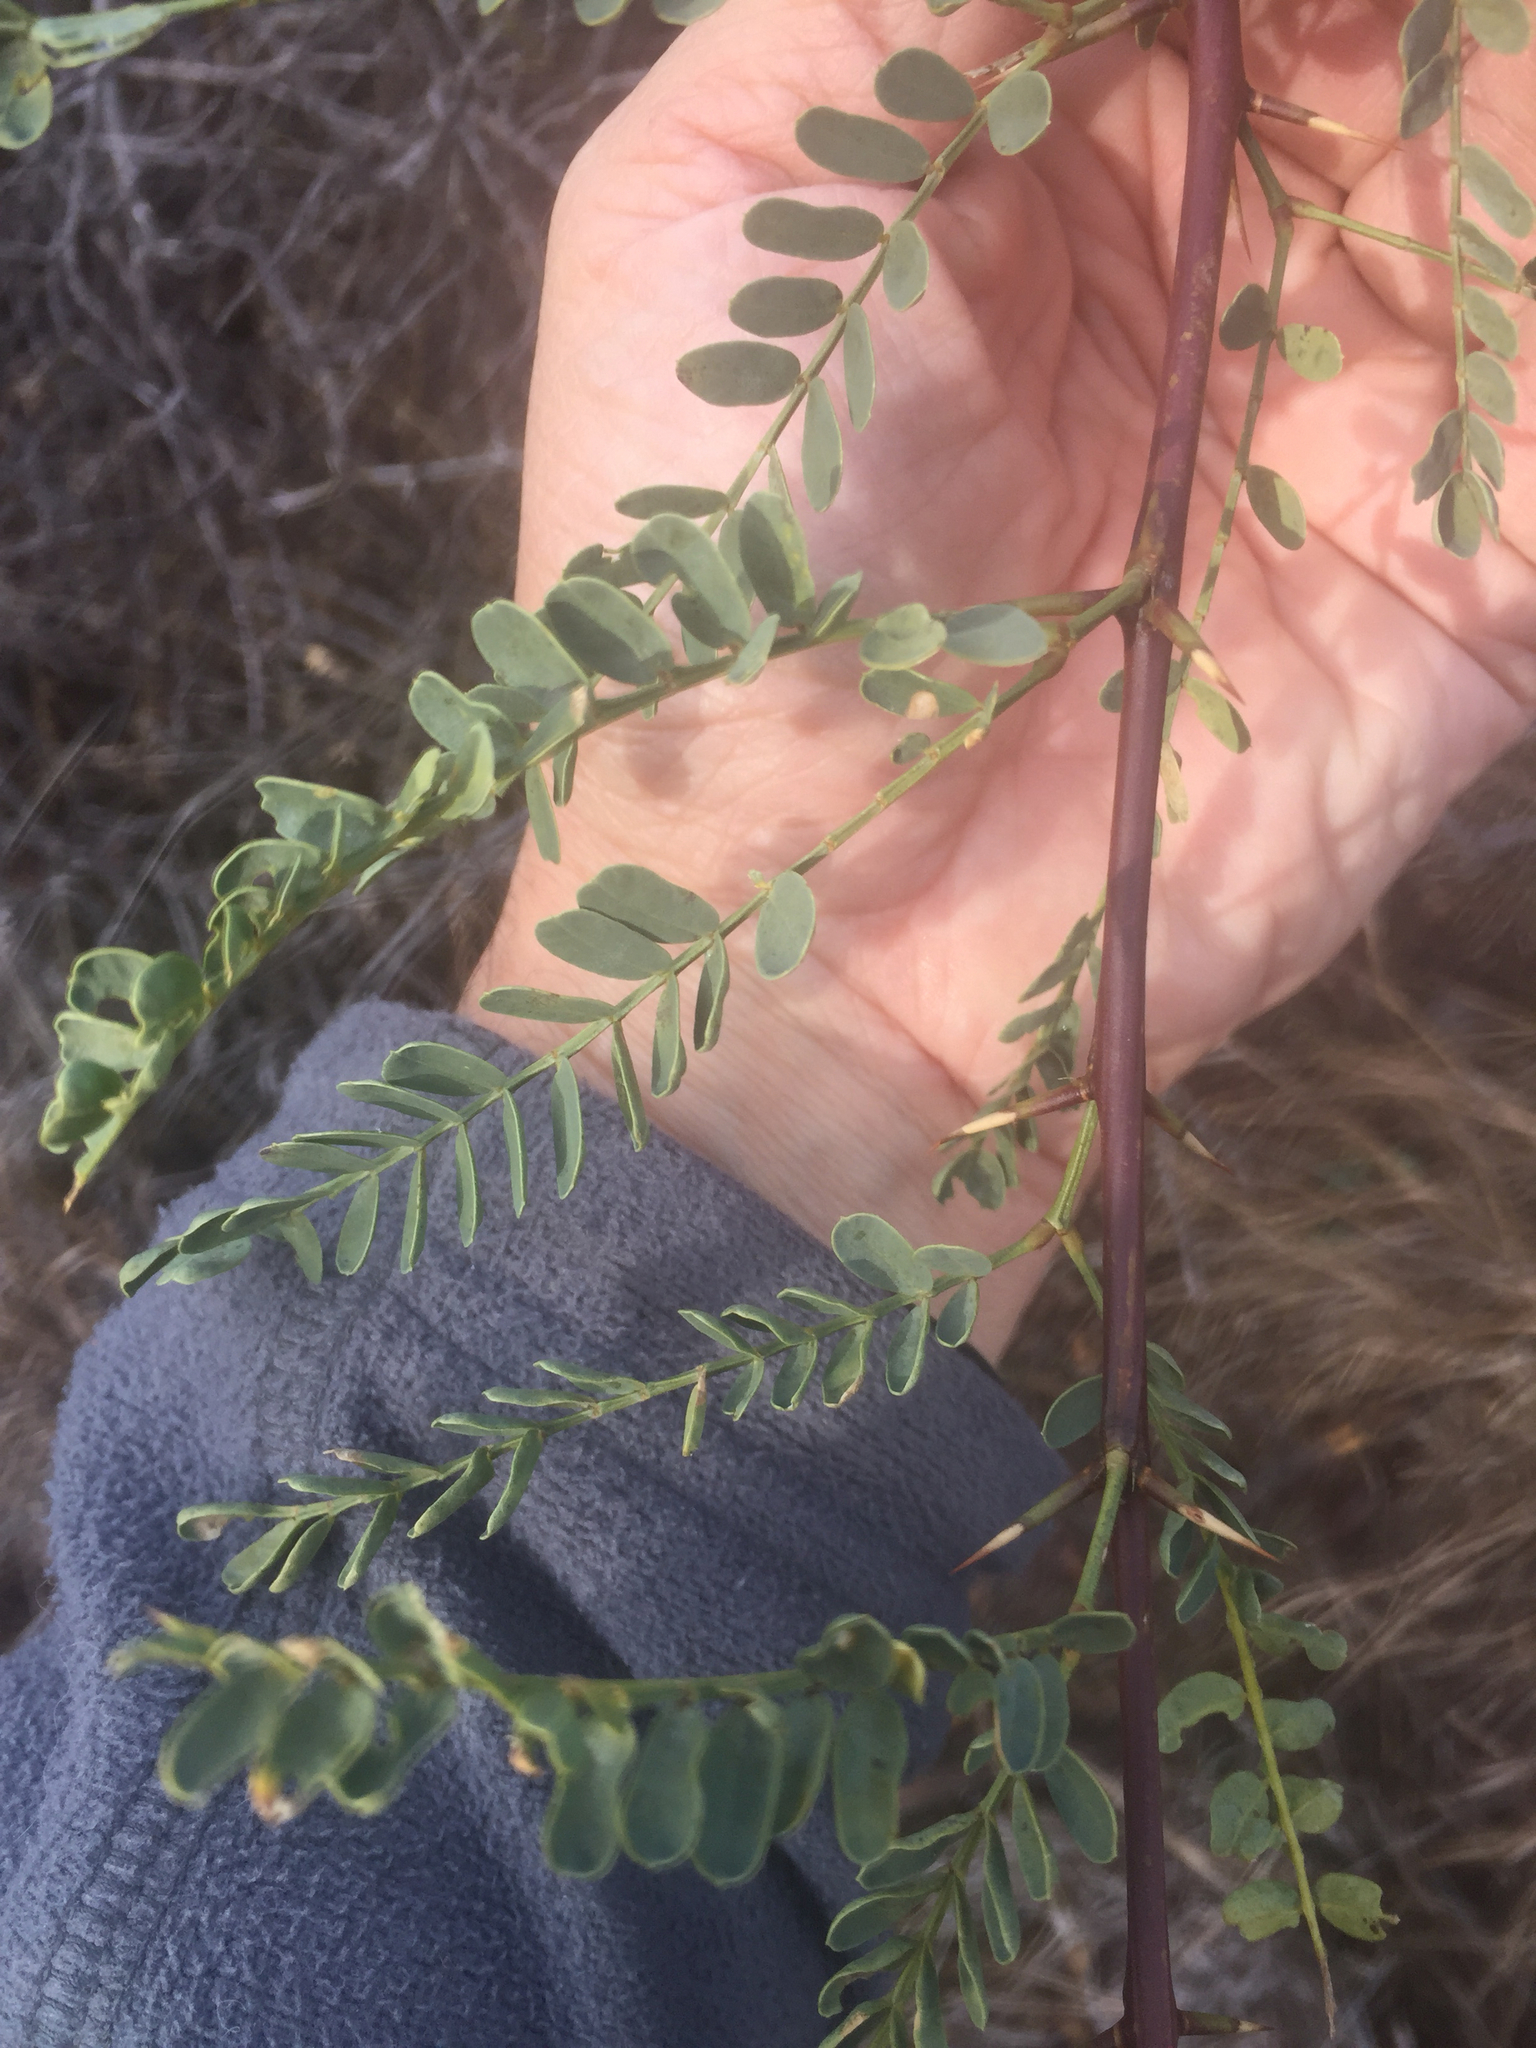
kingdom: Plantae
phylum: Tracheophyta
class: Magnoliopsida
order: Fabales
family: Fabaceae
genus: Prosopis
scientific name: Prosopis glandulosa
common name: Honey mesquite
